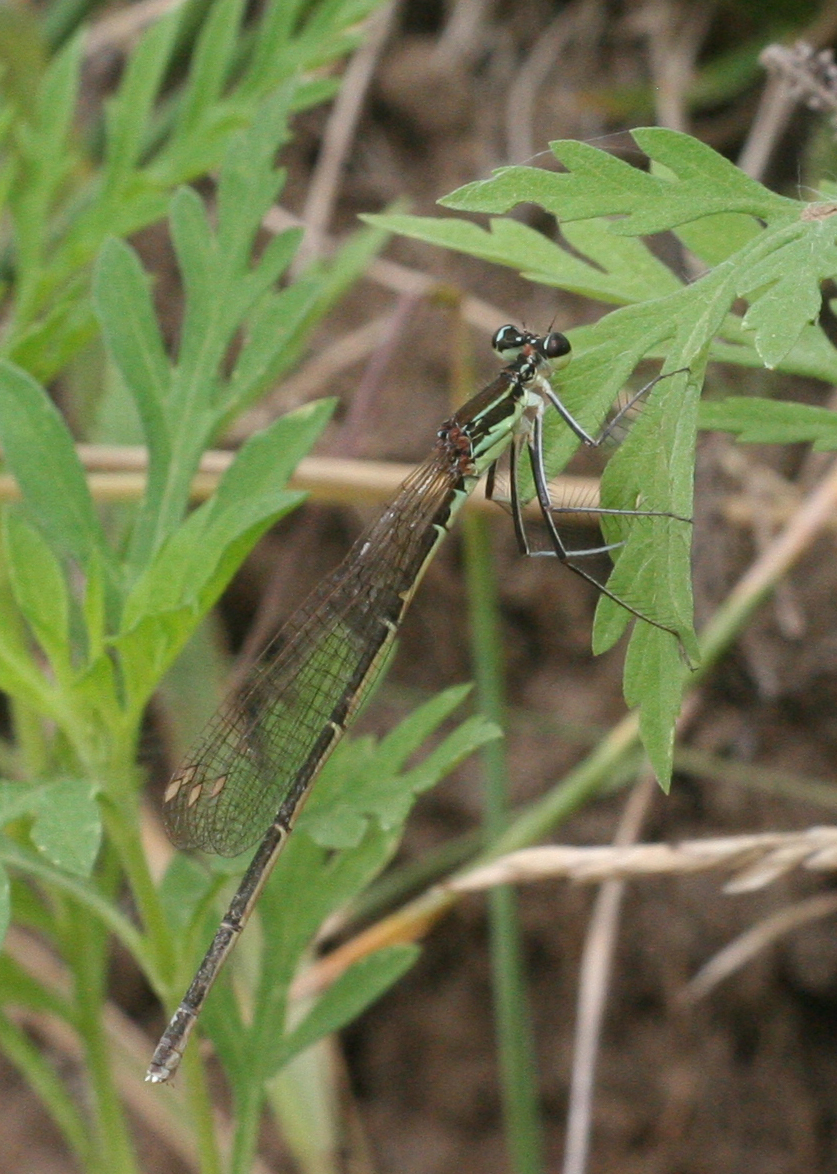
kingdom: Animalia
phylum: Arthropoda
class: Insecta
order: Odonata
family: Platycnemididae
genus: Pseudocopera
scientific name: Pseudocopera rubripes
